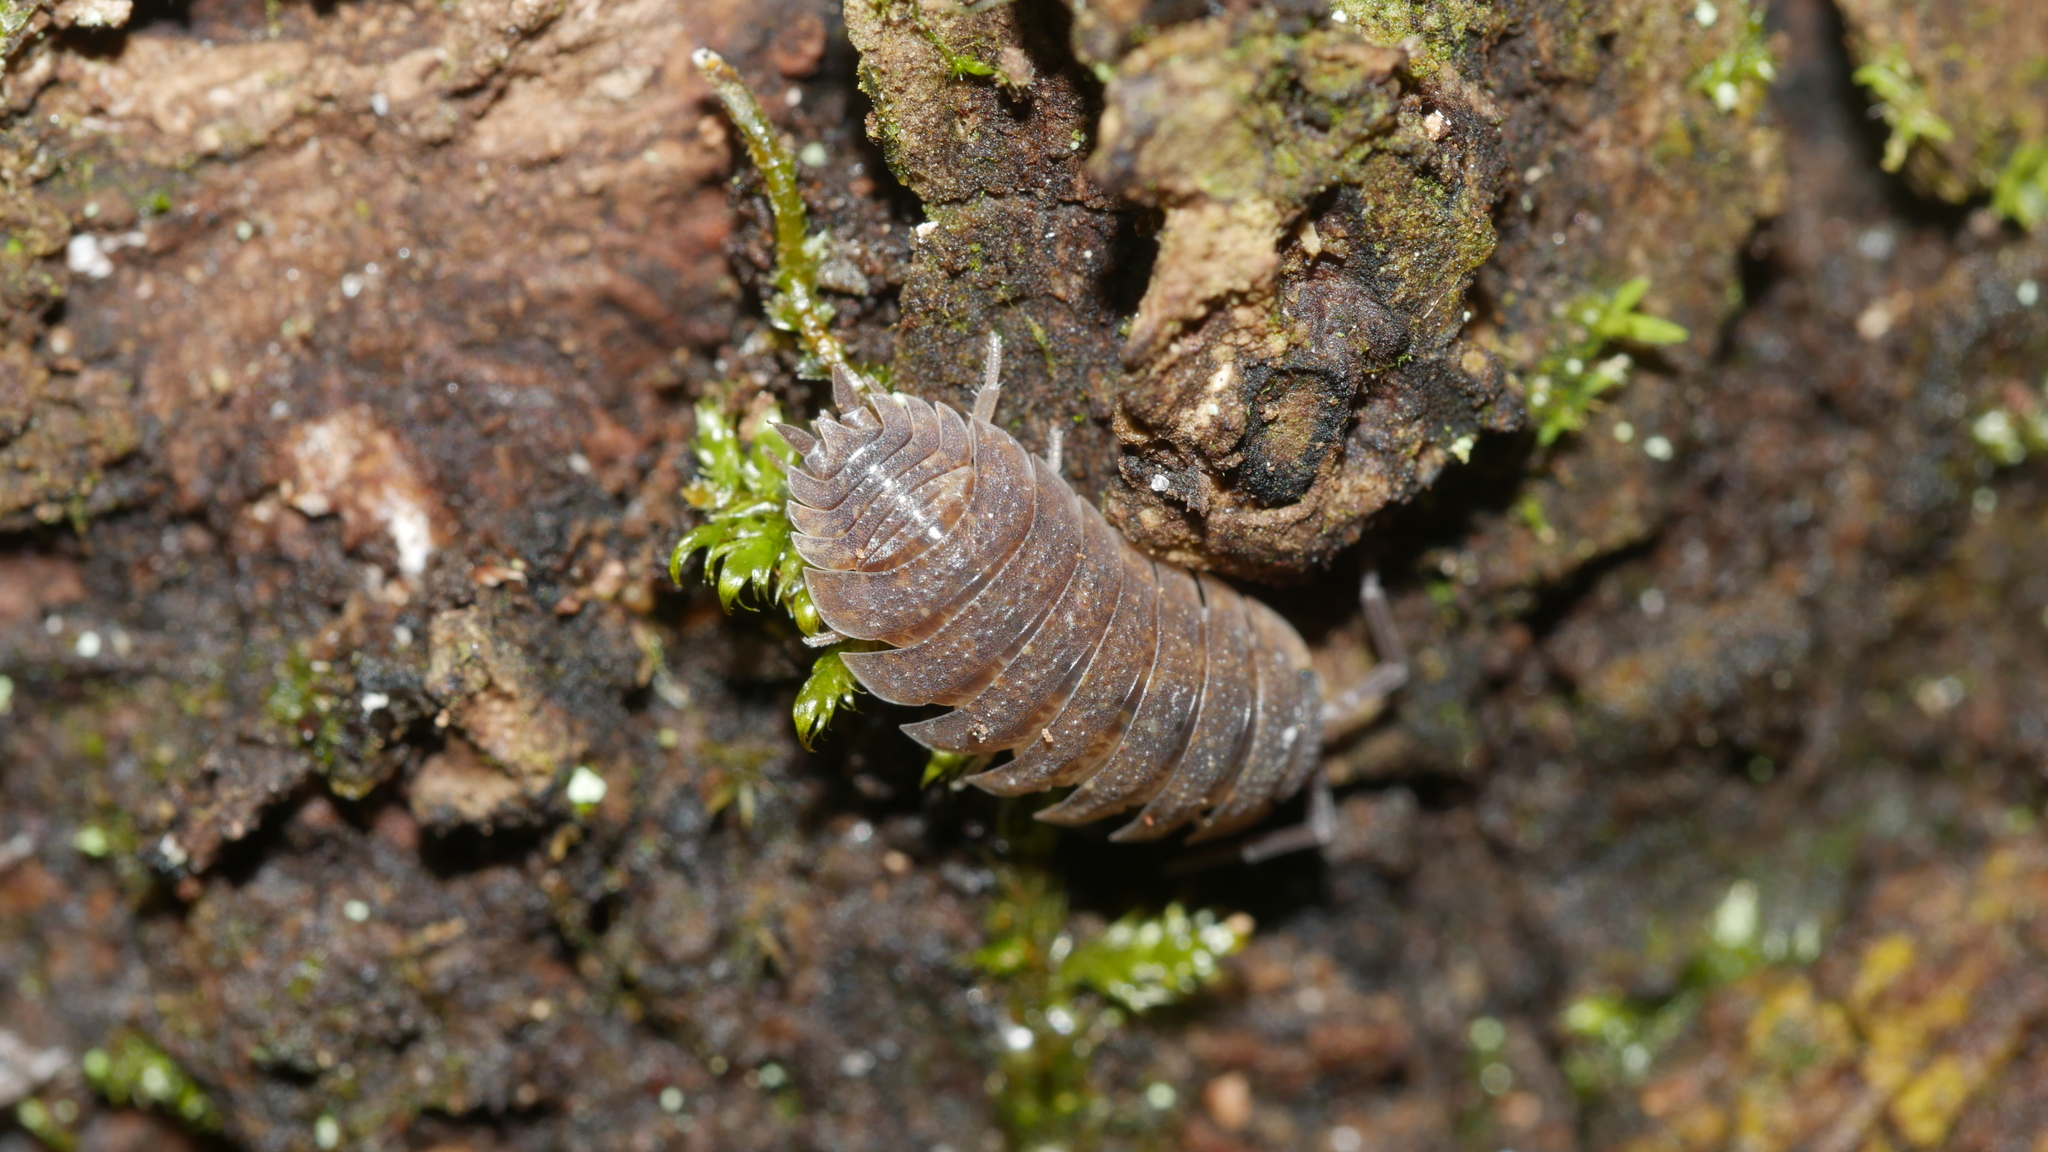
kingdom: Animalia
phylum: Arthropoda
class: Malacostraca
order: Isopoda
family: Porcellionidae
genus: Porcellio
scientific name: Porcellio scaber
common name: Common rough woodlouse
